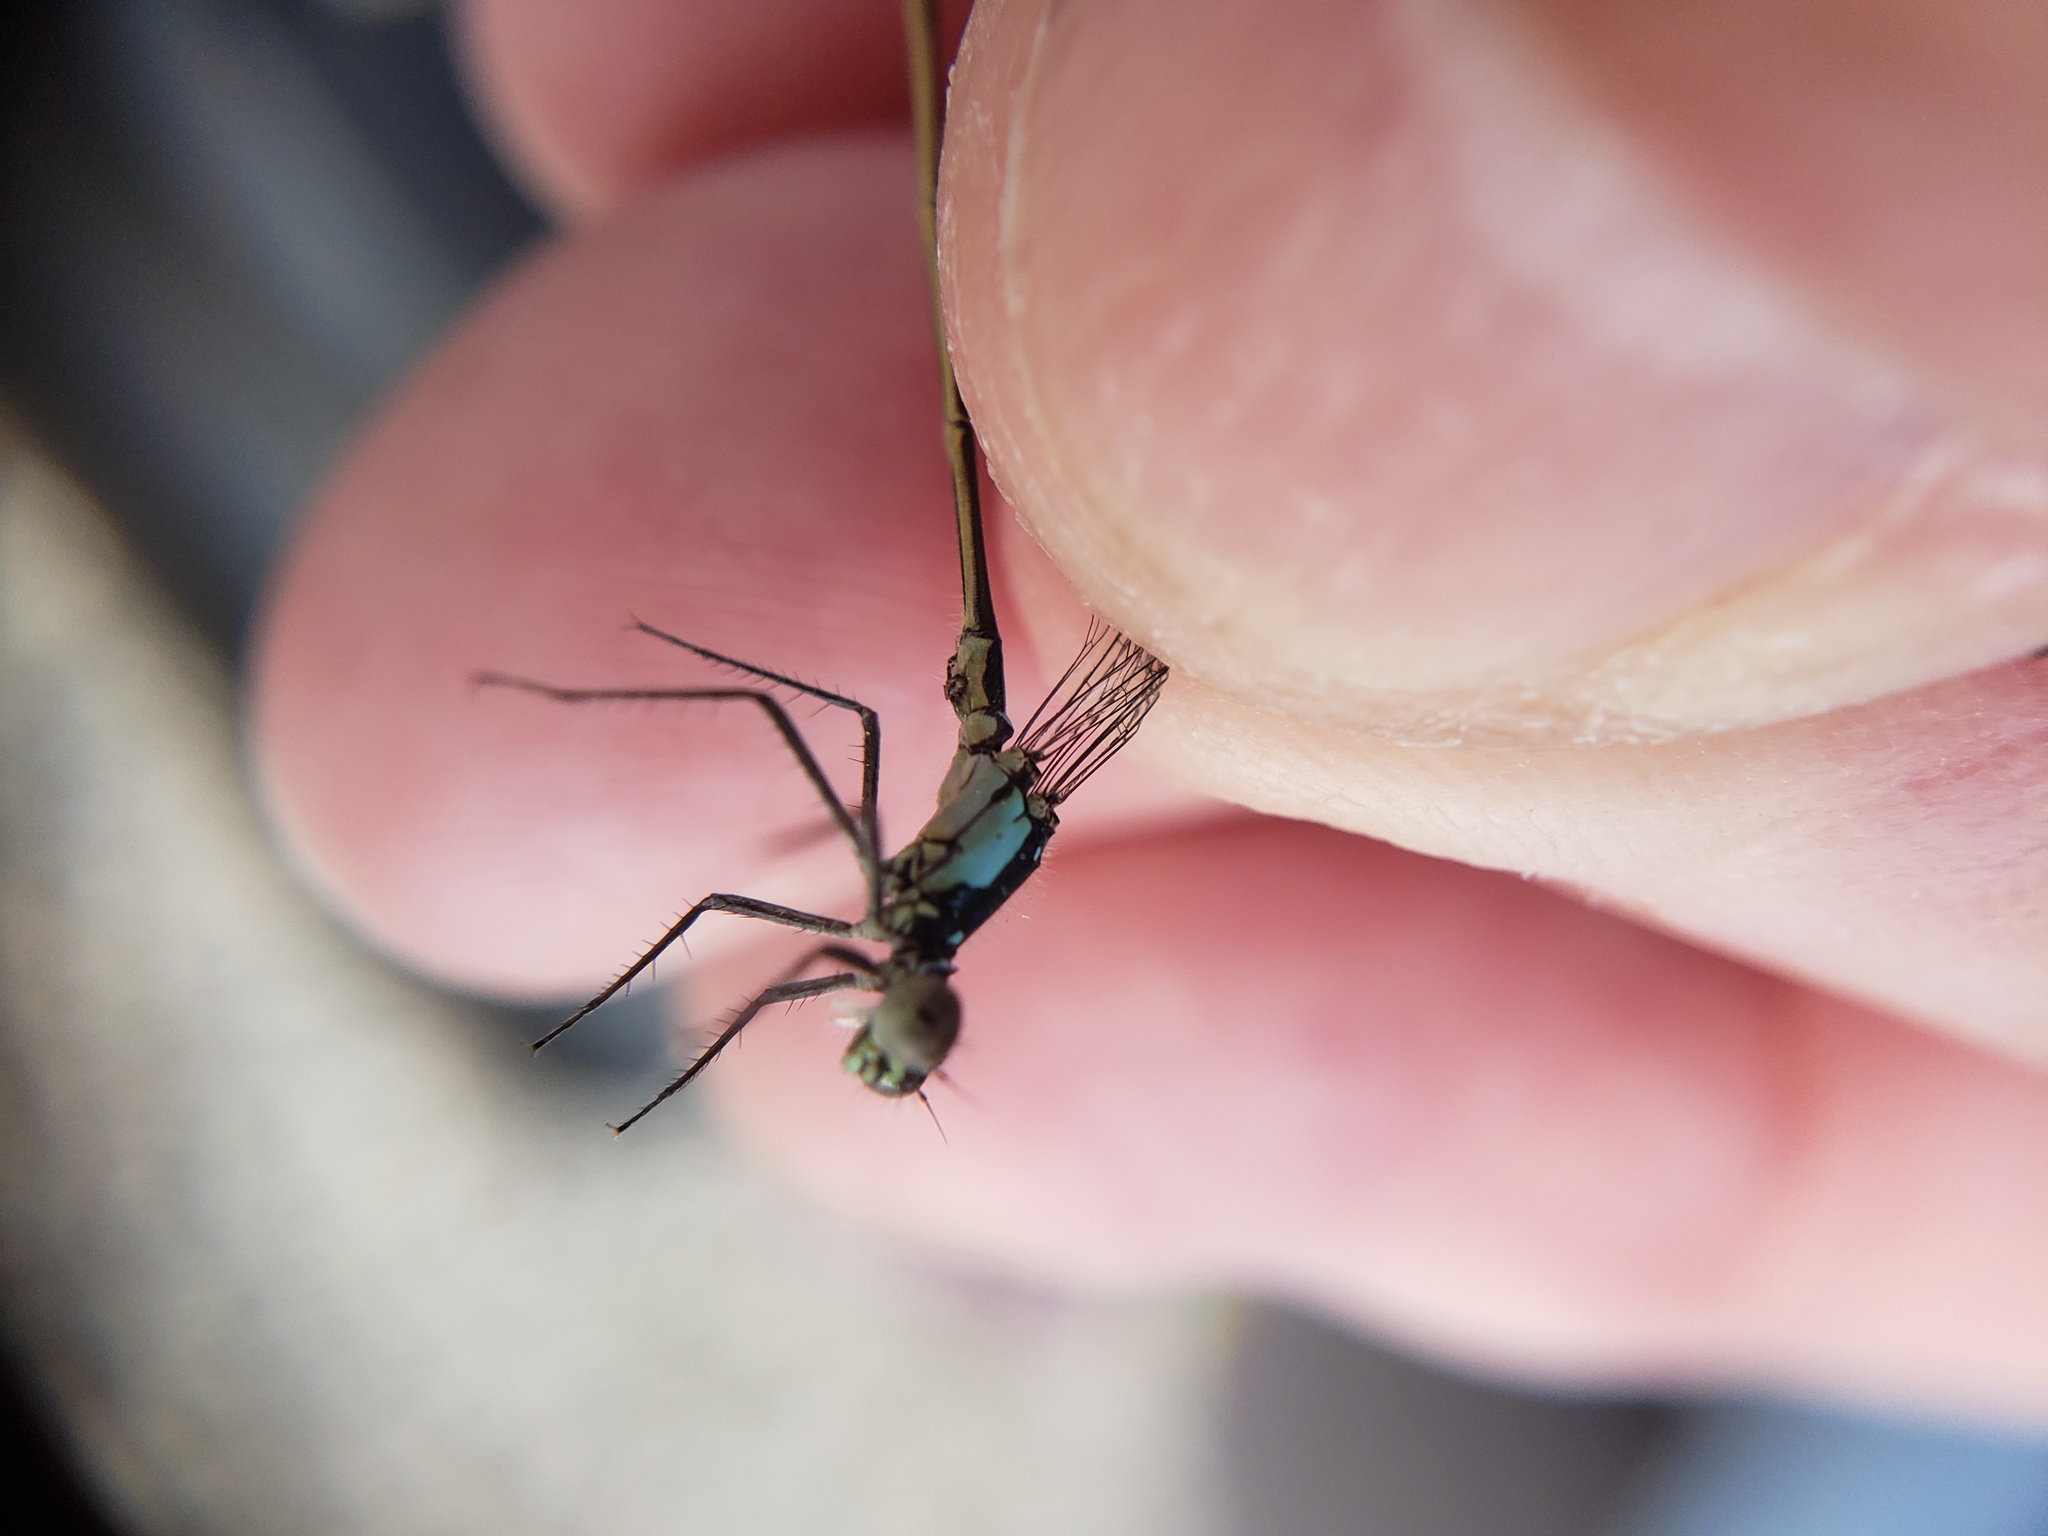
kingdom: Animalia
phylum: Arthropoda
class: Insecta
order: Odonata
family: Coenagrionidae
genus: Ischnura
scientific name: Ischnura cervula
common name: Pacific forktail
